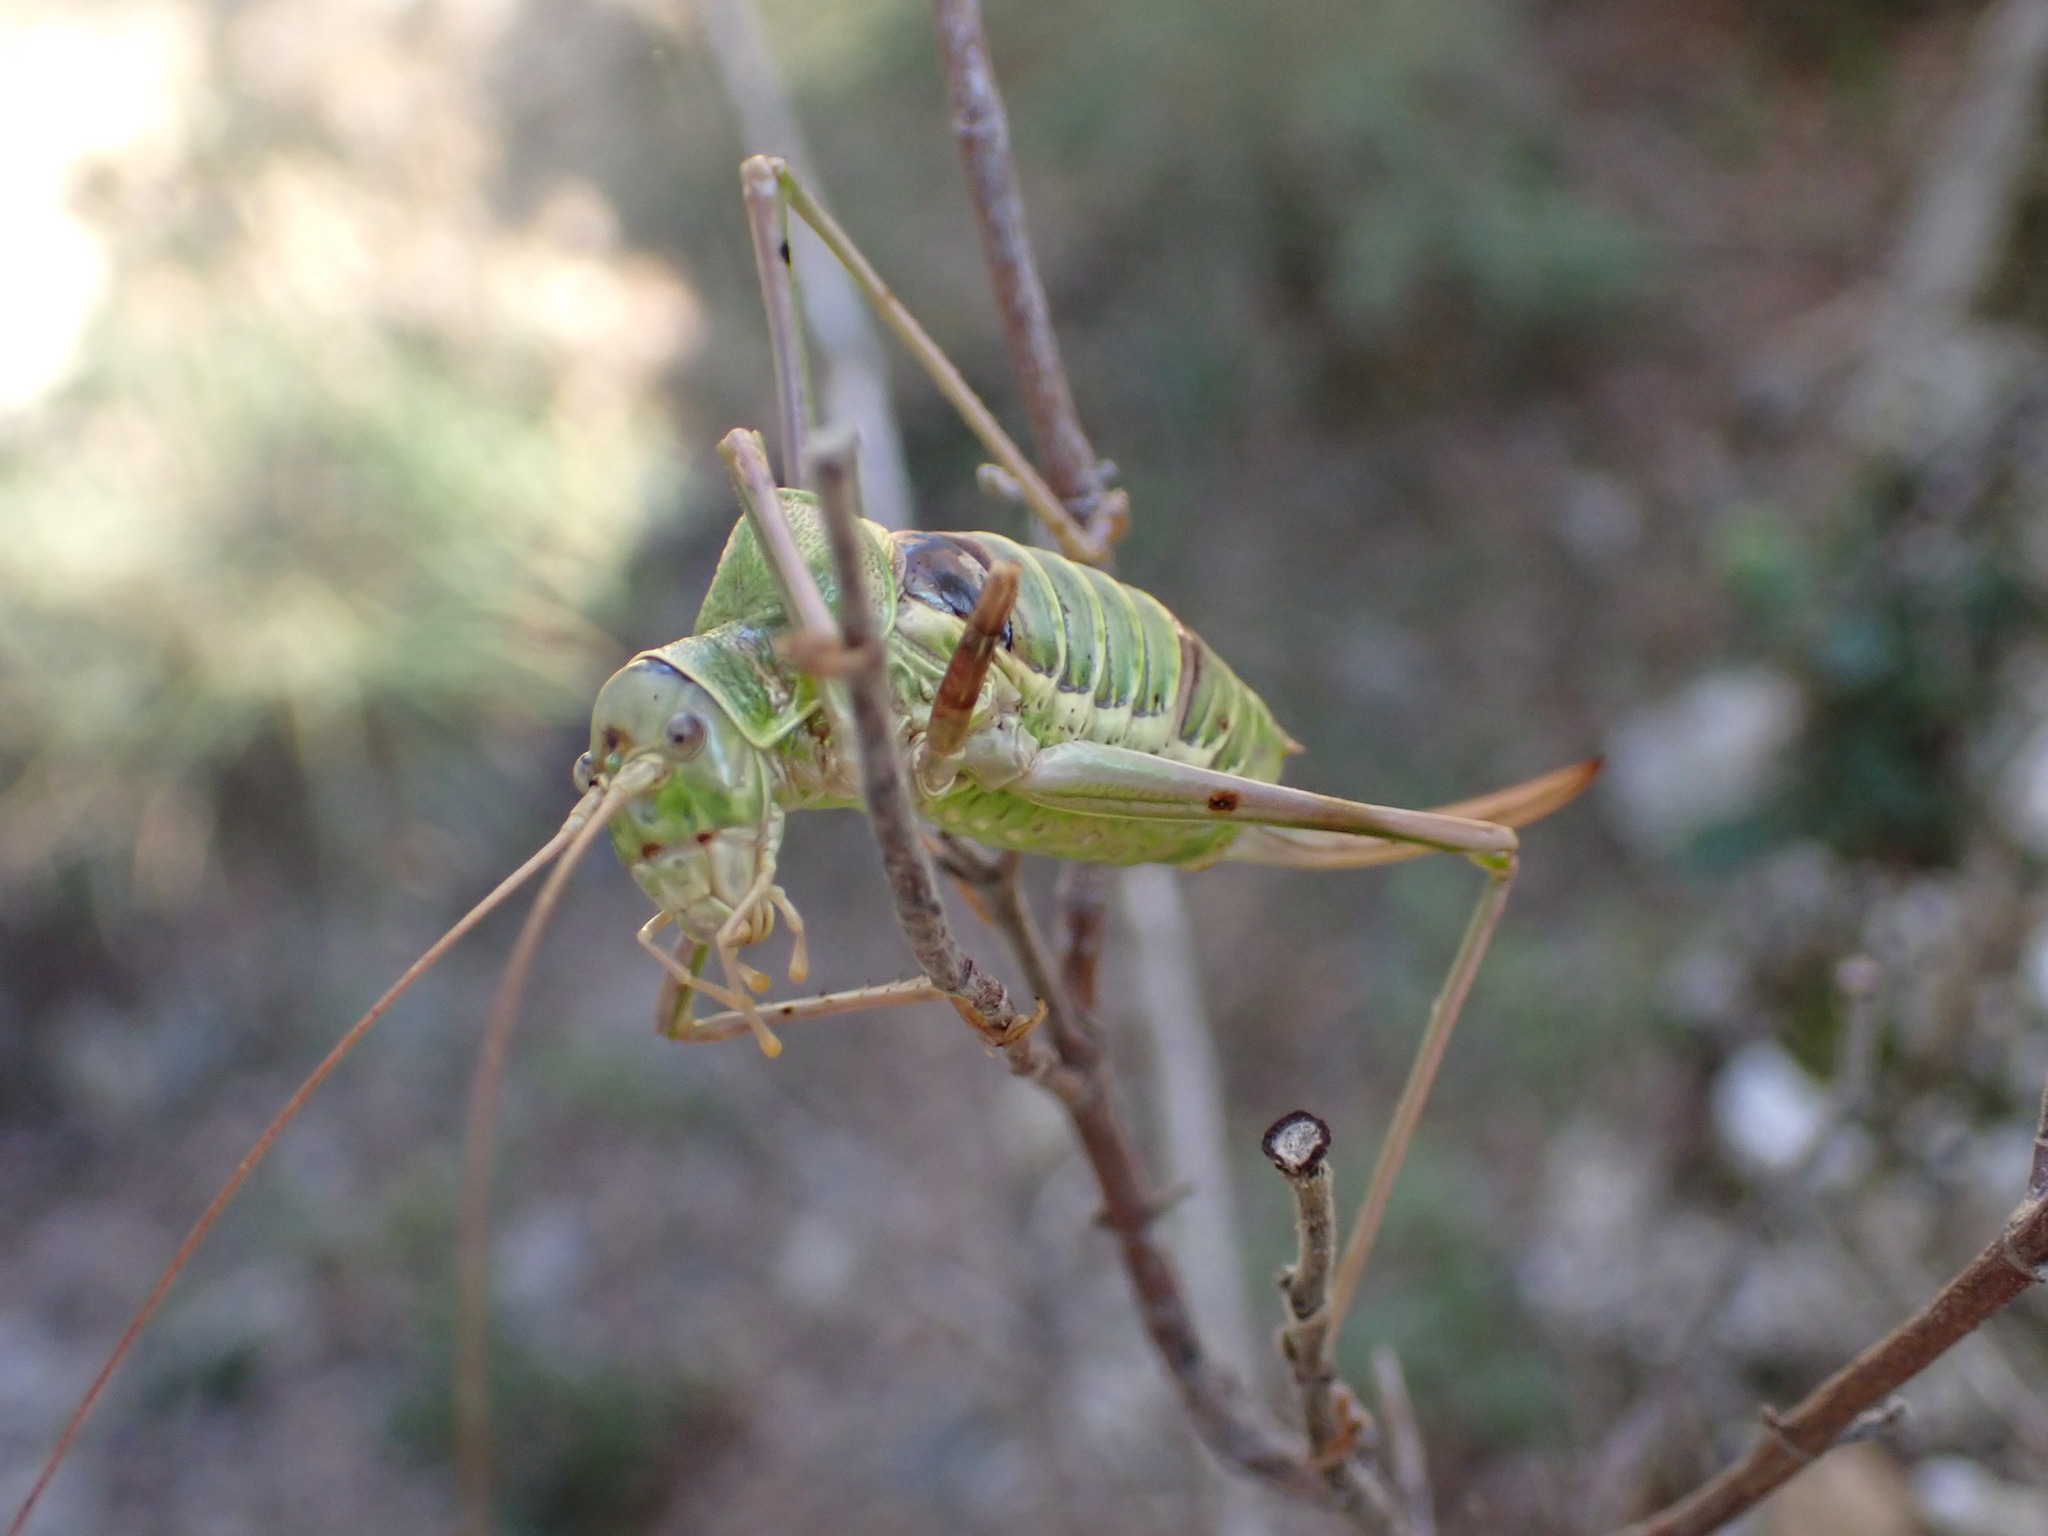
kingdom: Animalia
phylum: Arthropoda
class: Insecta
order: Orthoptera
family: Tettigoniidae
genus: Ephippiger
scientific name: Ephippiger diurnus
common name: Western saddle bush-cricket
